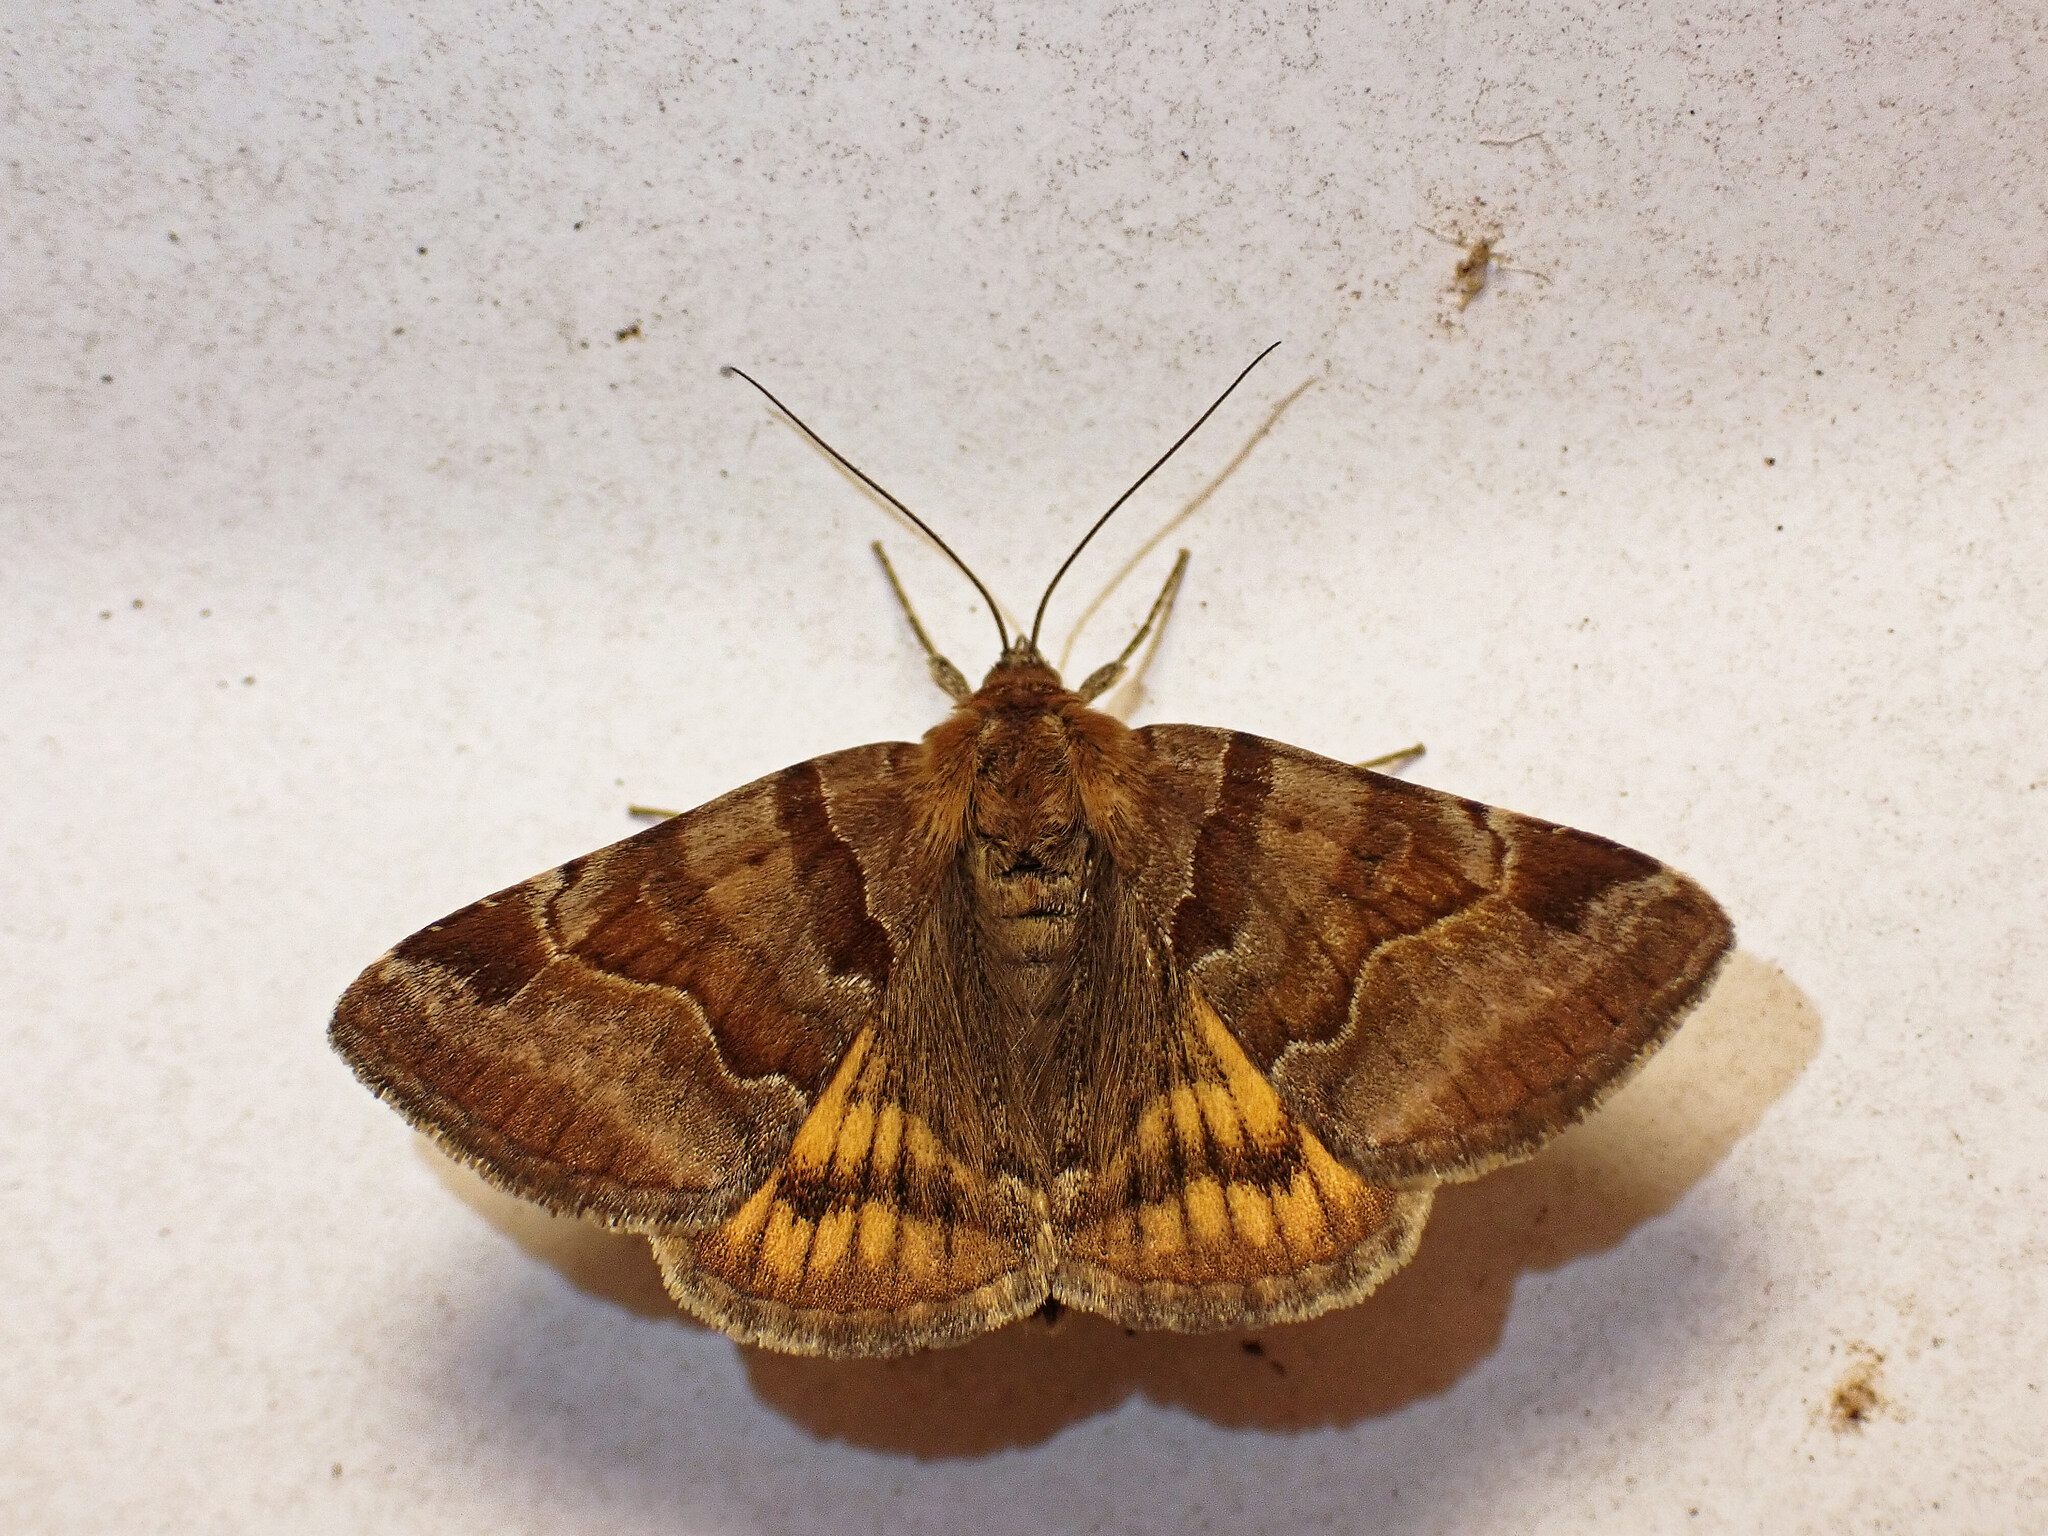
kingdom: Animalia
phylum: Arthropoda
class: Insecta
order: Lepidoptera
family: Erebidae
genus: Euclidia
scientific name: Euclidia glyphica
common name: Burnet companion
